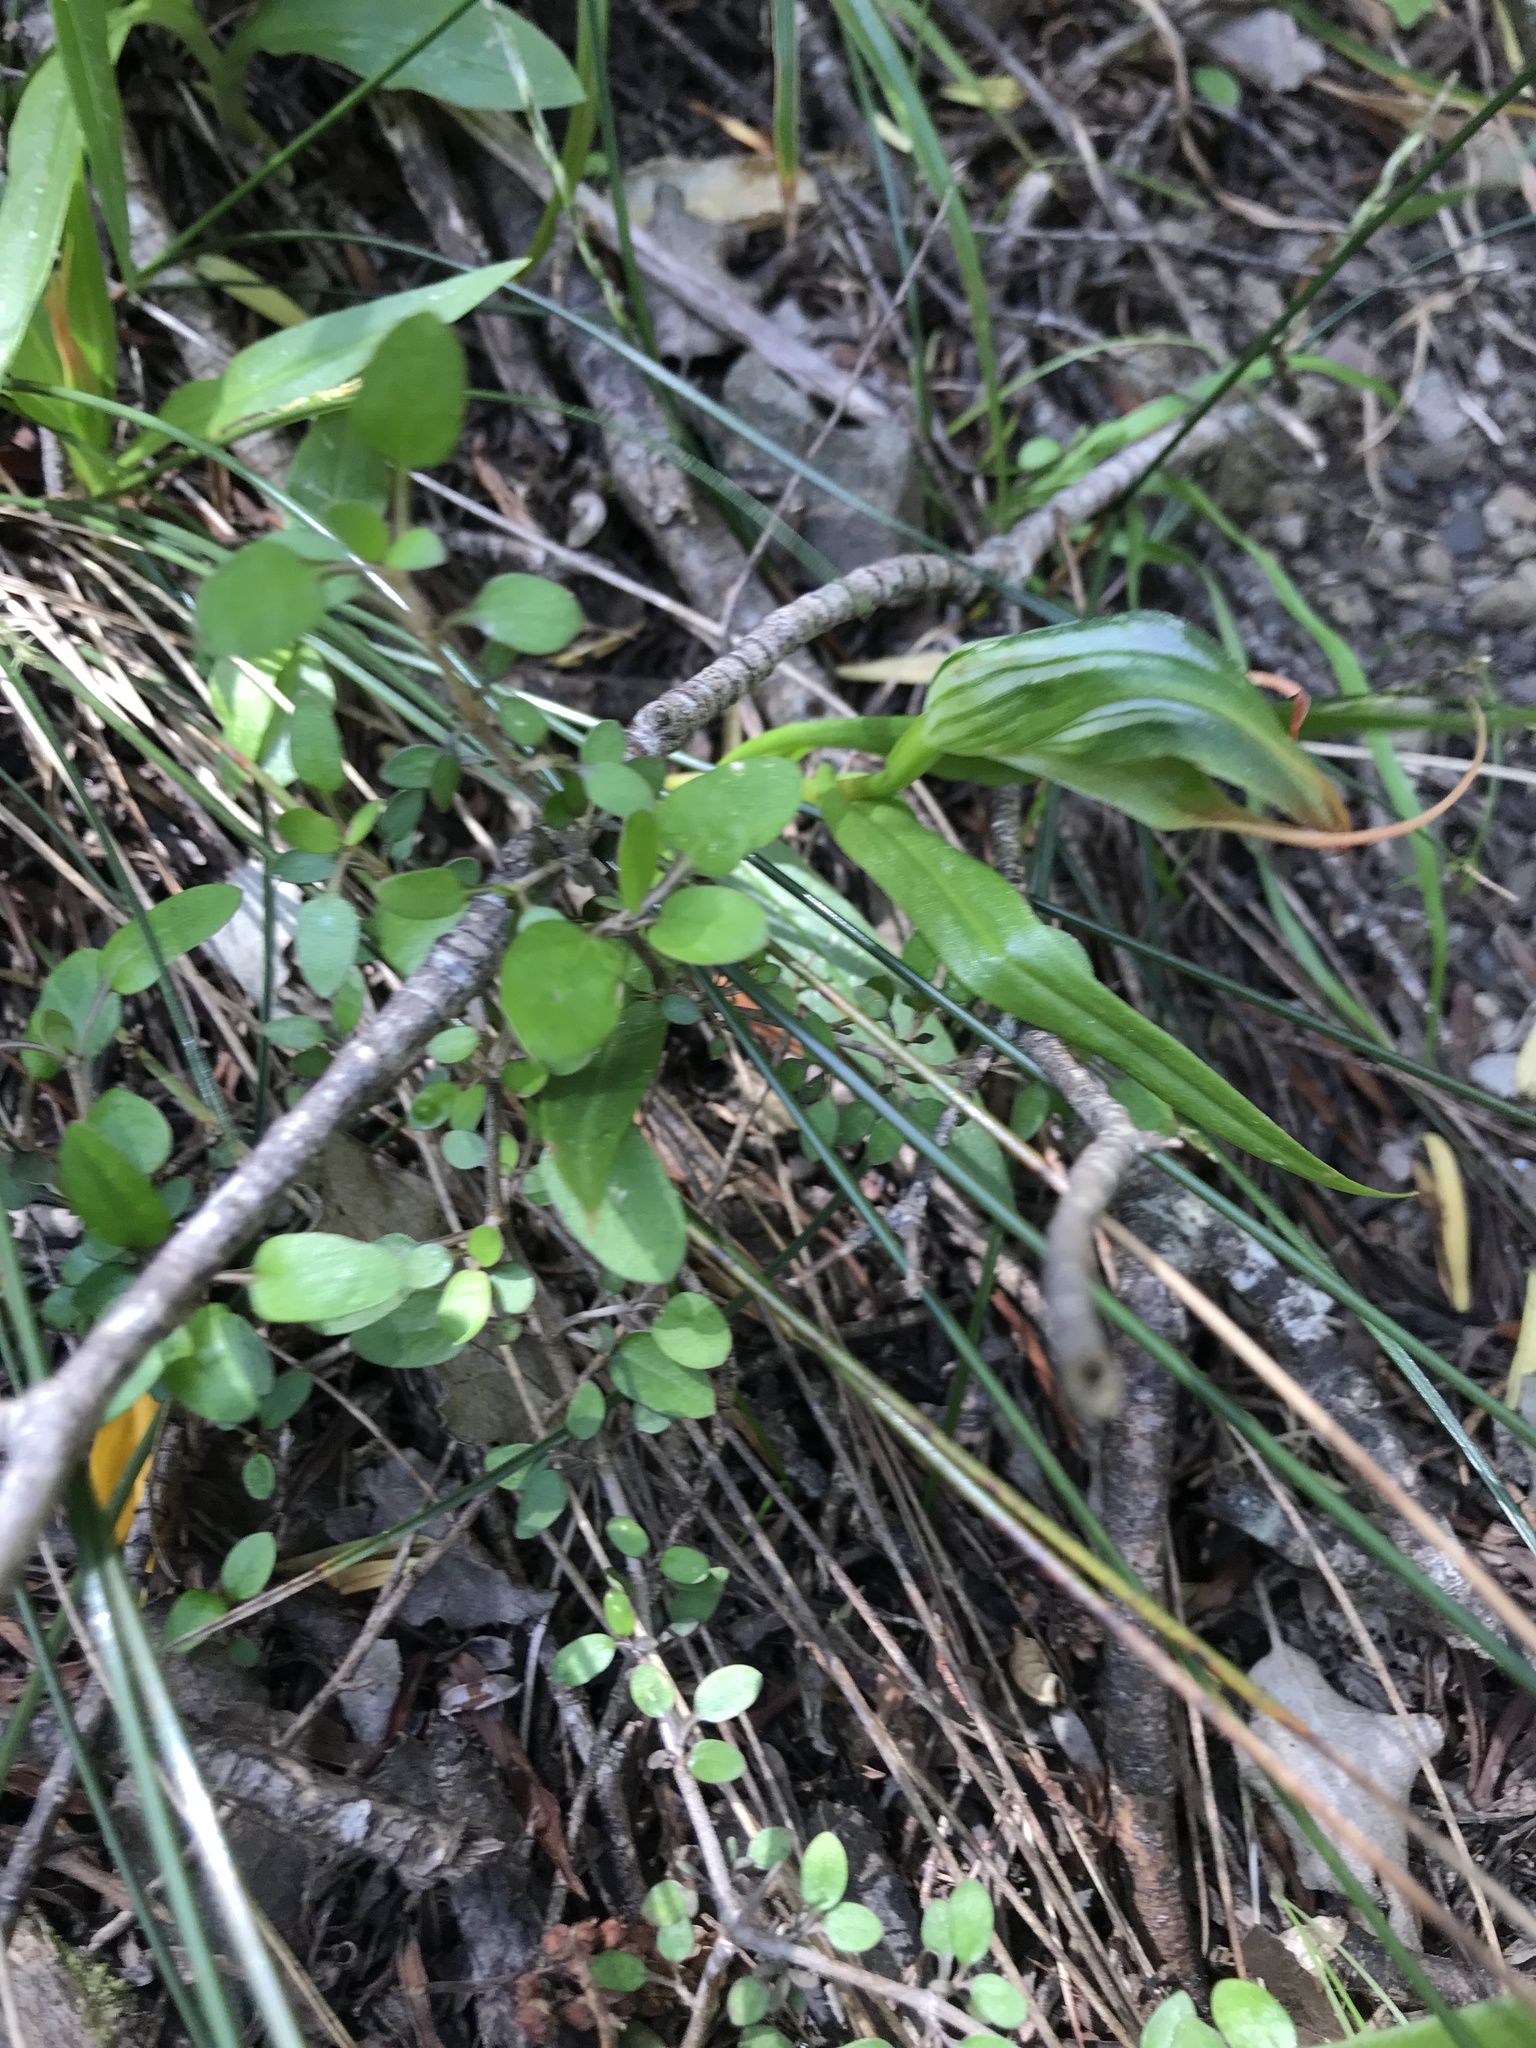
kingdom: Plantae
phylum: Tracheophyta
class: Liliopsida
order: Asparagales
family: Orchidaceae
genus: Pterostylis
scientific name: Pterostylis banksii
